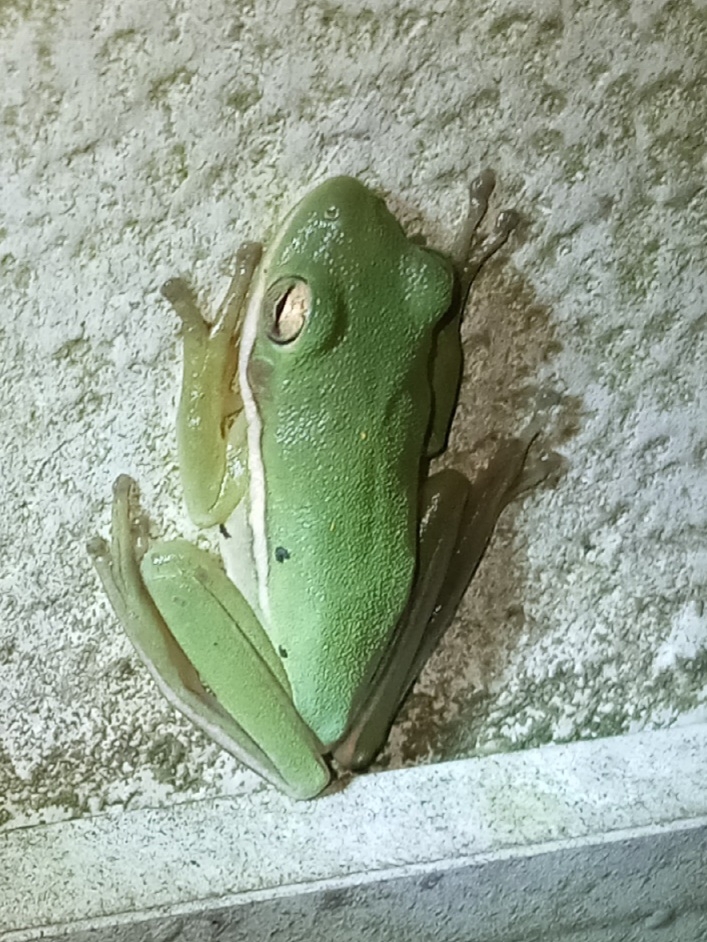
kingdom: Animalia
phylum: Chordata
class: Amphibia
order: Anura
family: Hylidae
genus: Dryophytes
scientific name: Dryophytes cinereus
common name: Green treefrog
